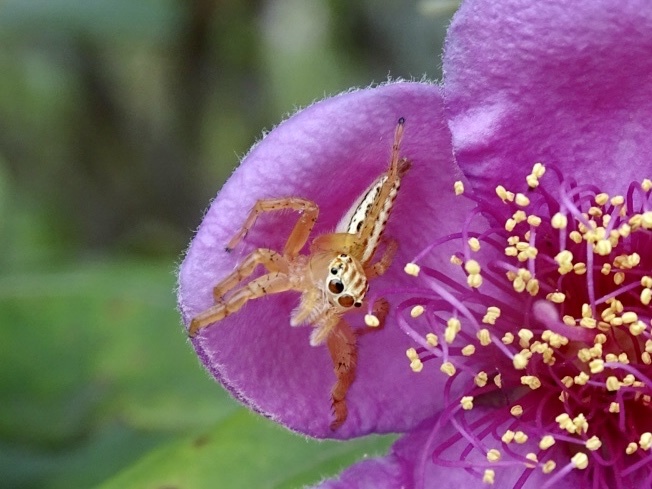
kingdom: Animalia
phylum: Arthropoda
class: Arachnida
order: Araneae
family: Salticidae
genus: Telamonia
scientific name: Telamonia caprina
